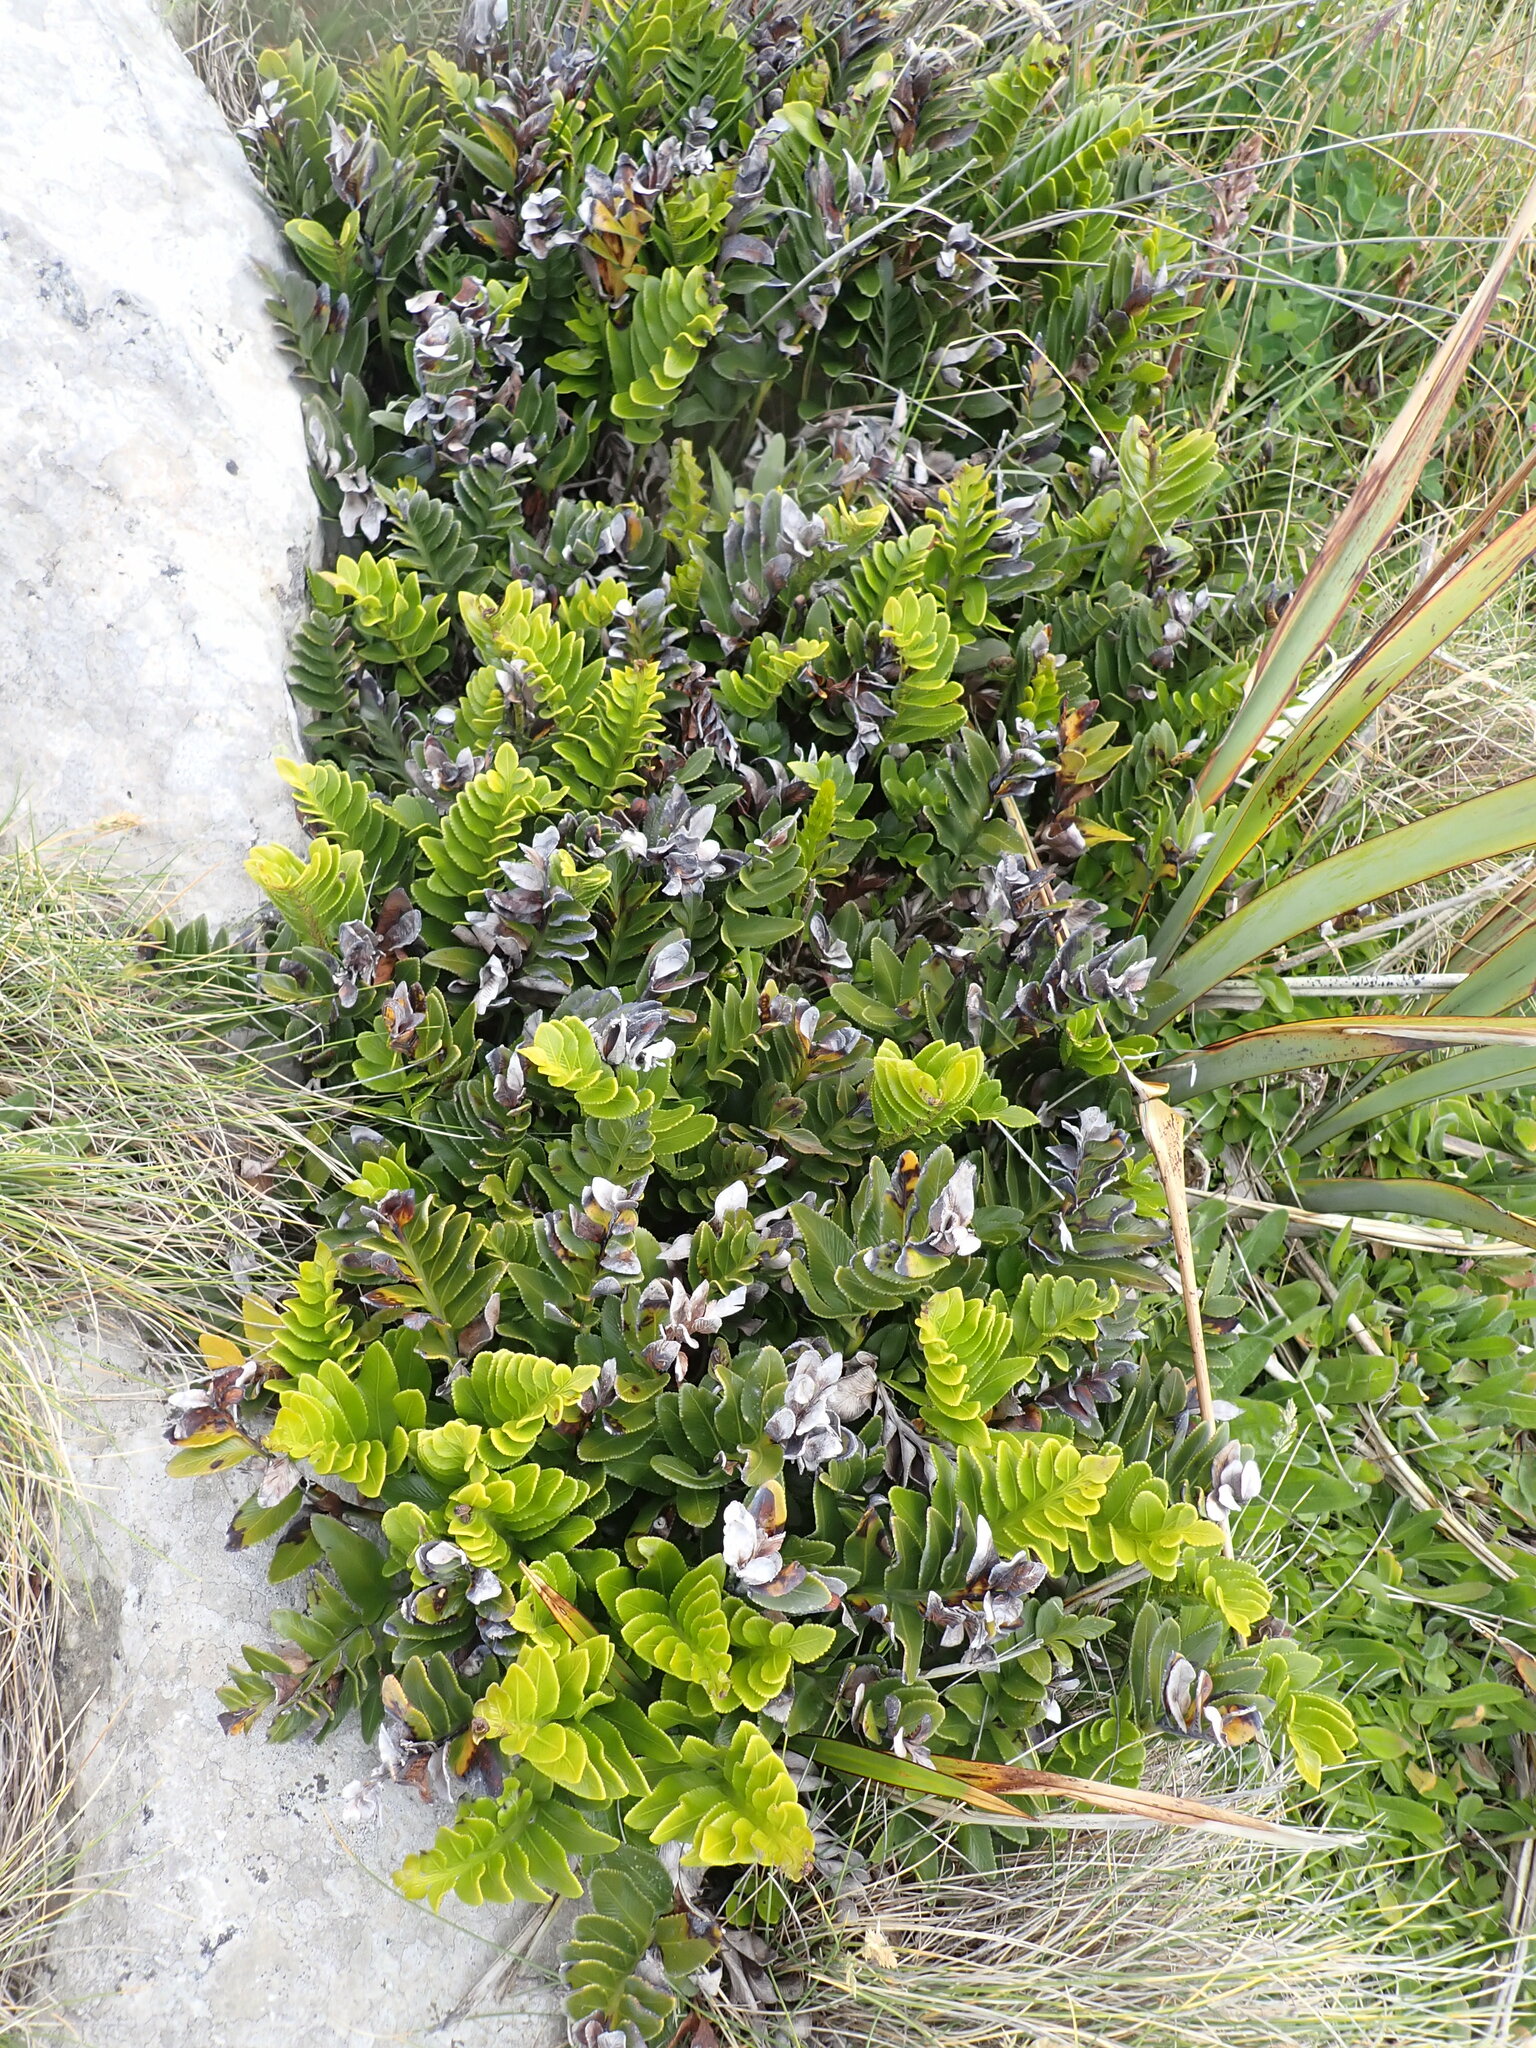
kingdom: Plantae
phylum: Tracheophyta
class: Polypodiopsida
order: Polypodiales
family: Aspleniaceae
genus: Asplenium
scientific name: Asplenium obtusatum
